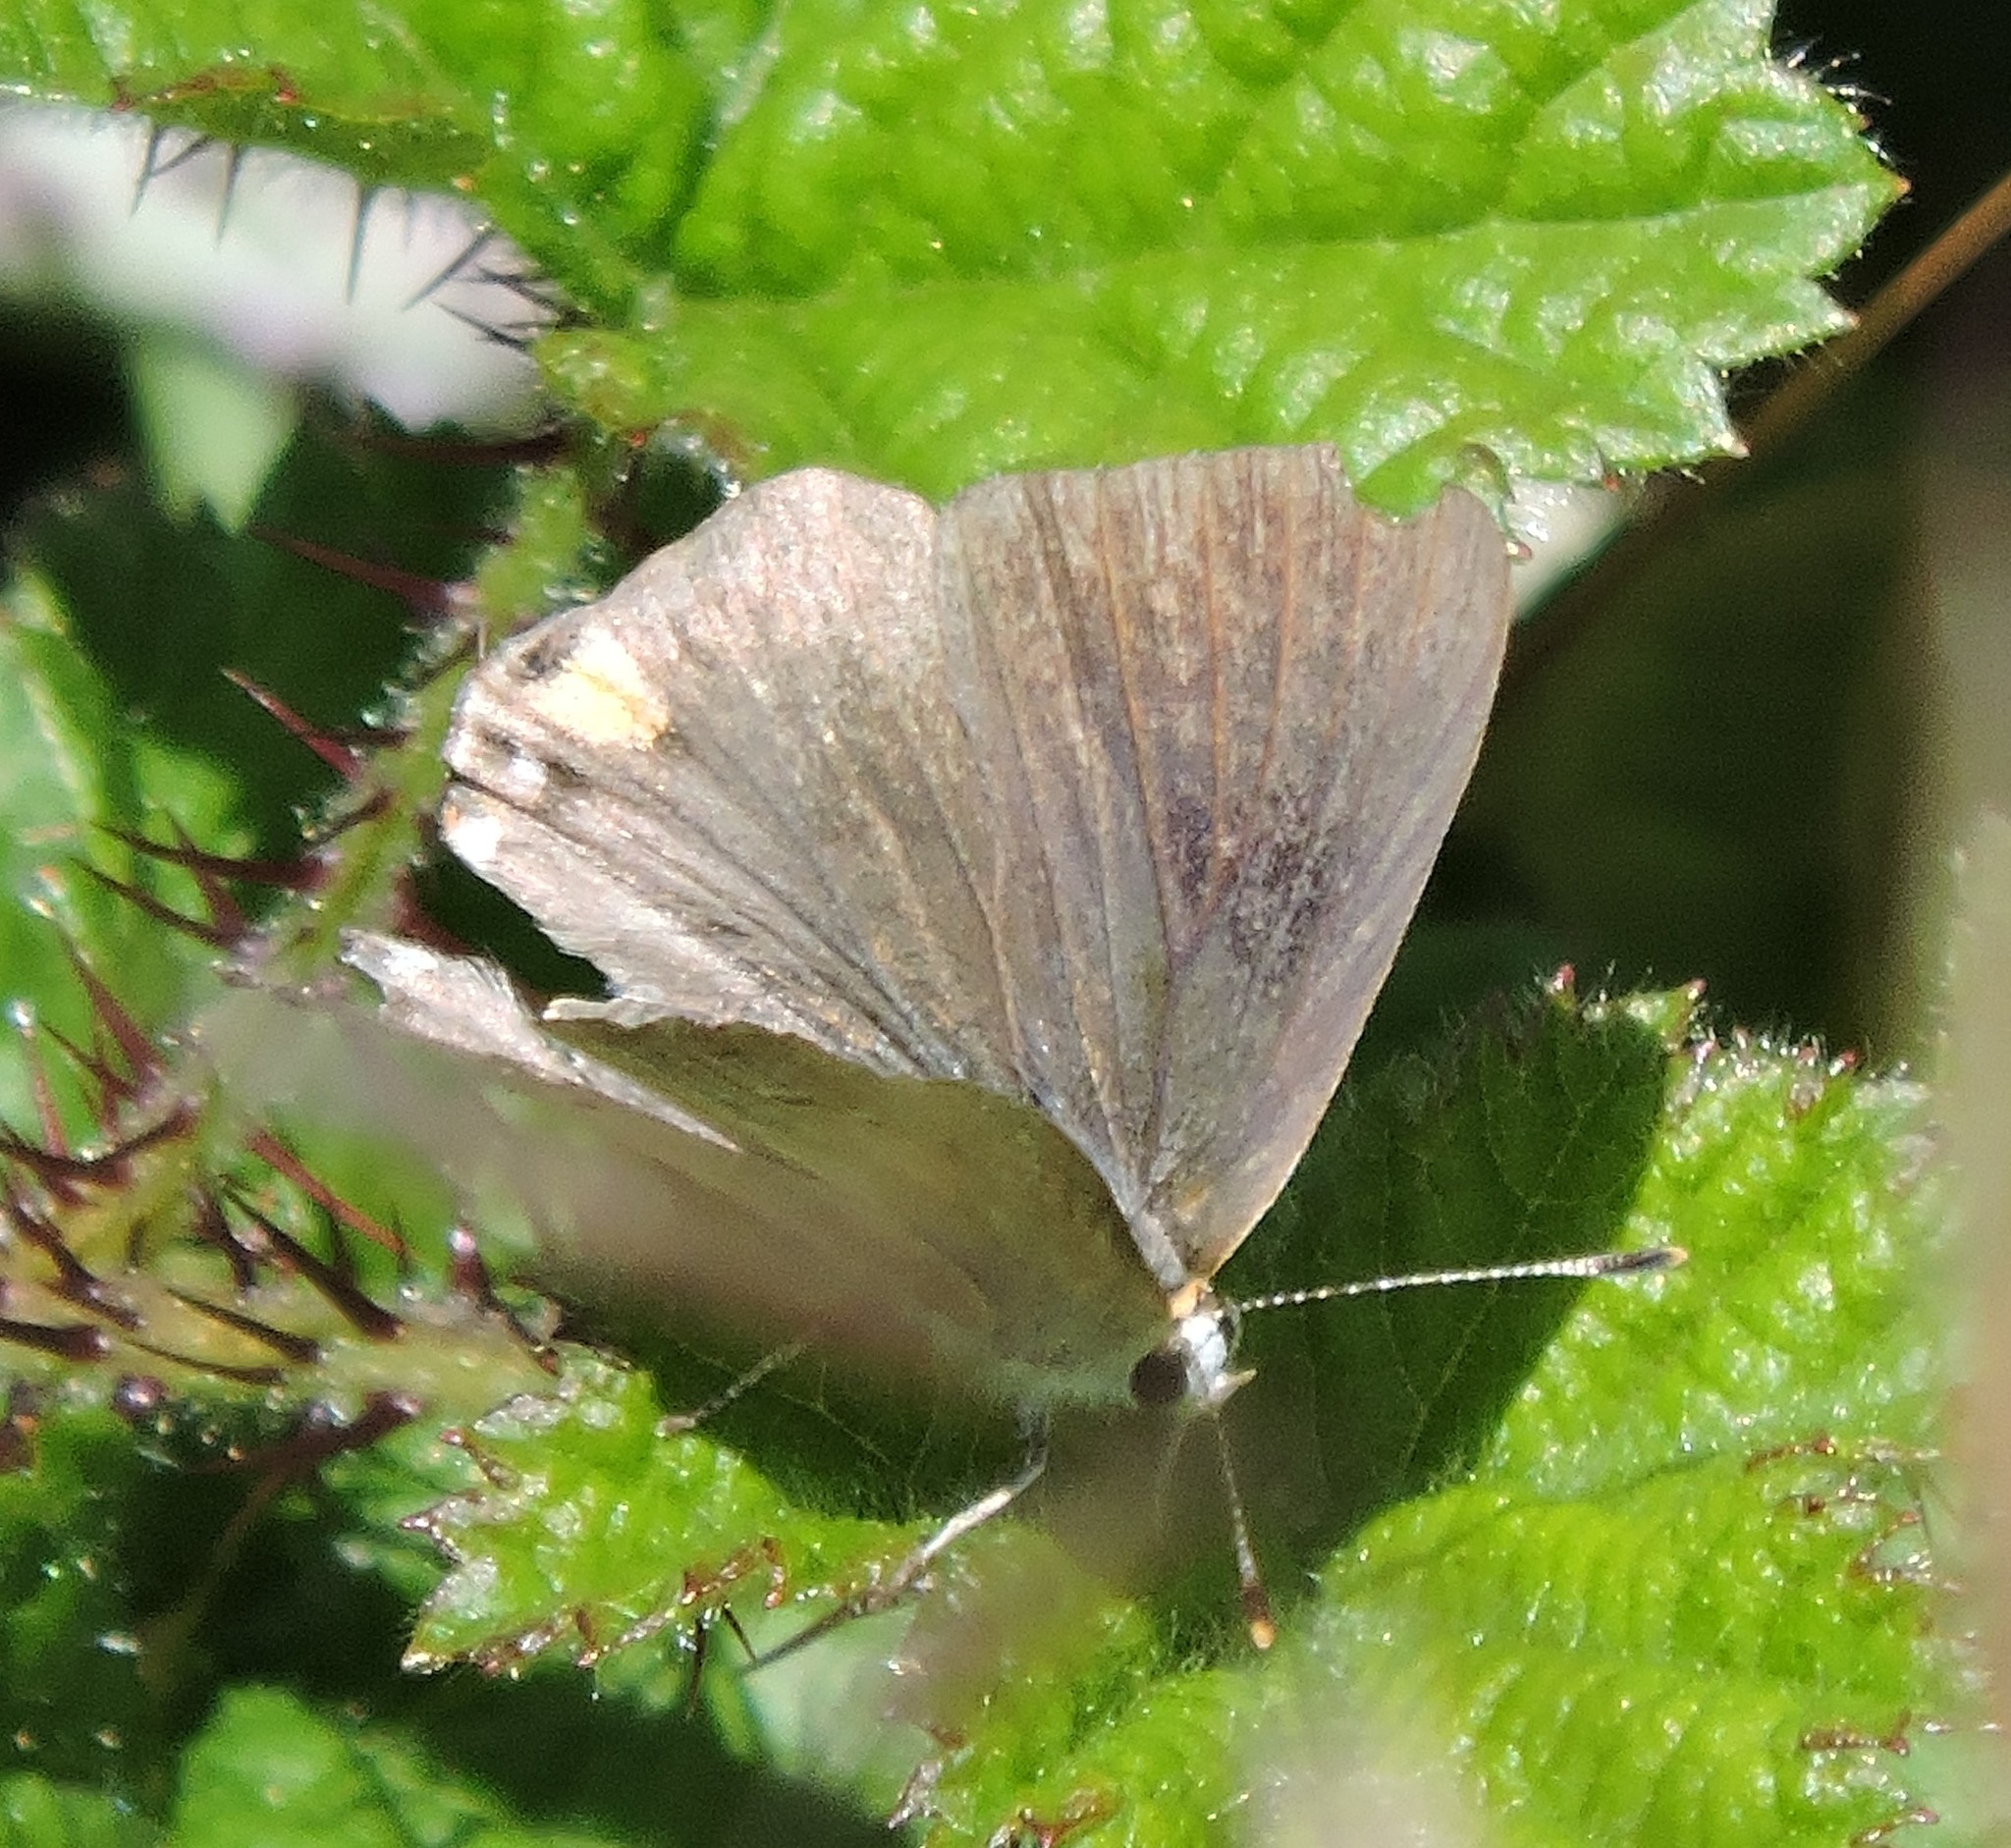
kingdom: Animalia
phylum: Arthropoda
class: Insecta
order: Lepidoptera
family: Lycaenidae
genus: Strymon
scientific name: Strymon melinus
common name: Gray hairstreak
